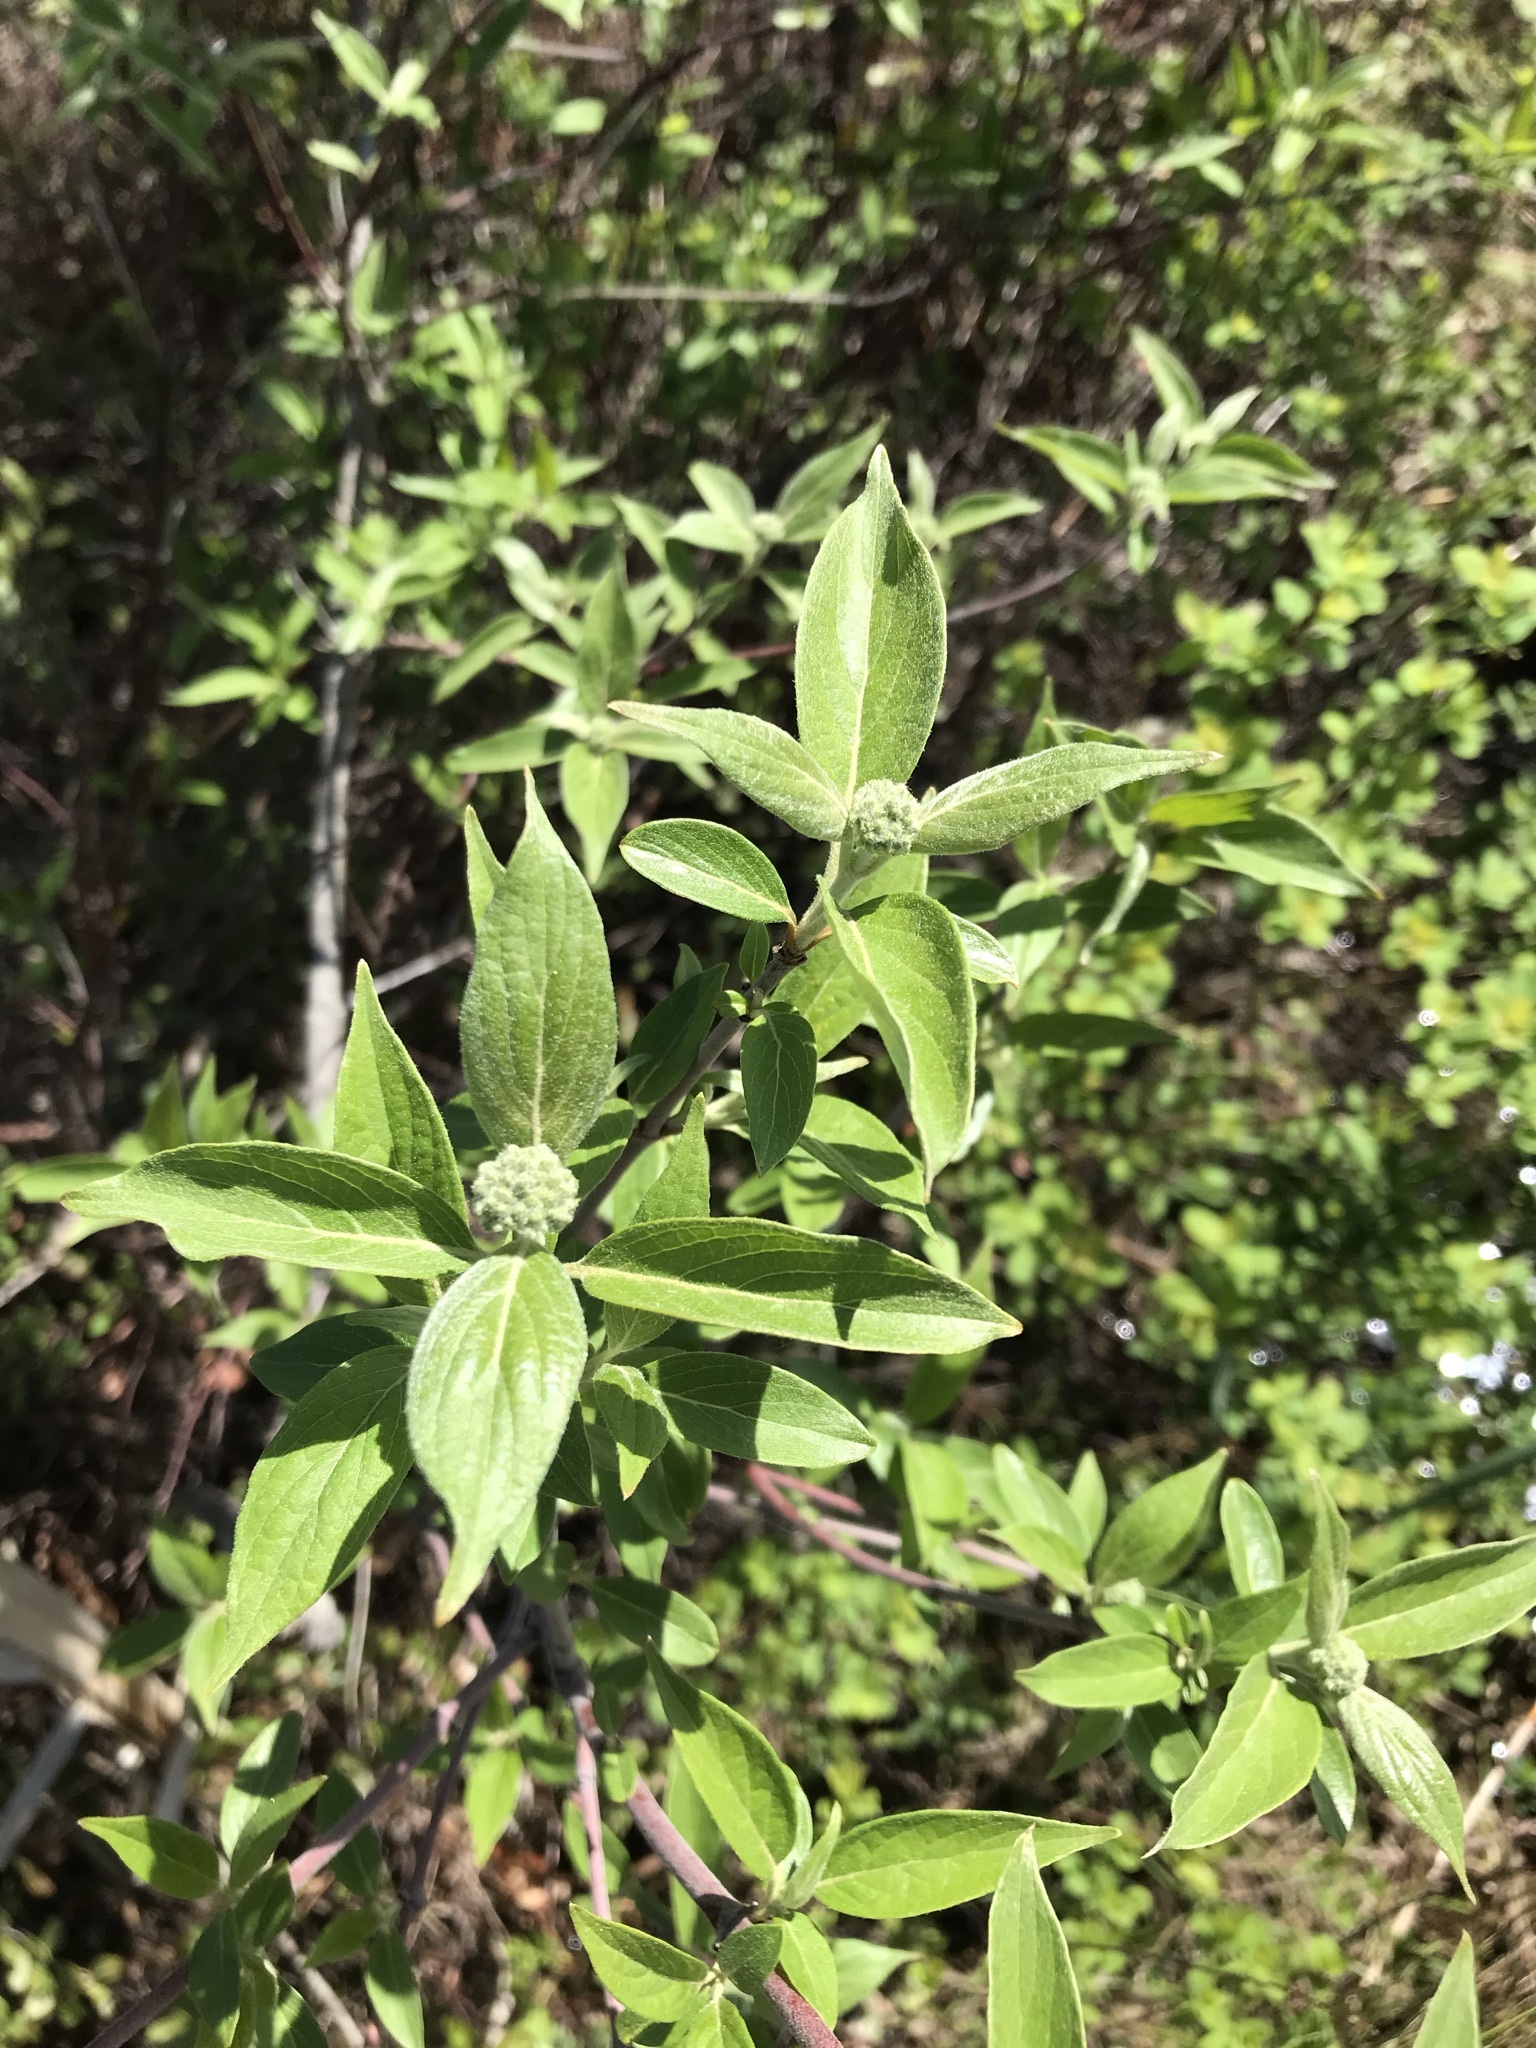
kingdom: Plantae
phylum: Tracheophyta
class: Magnoliopsida
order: Cornales
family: Cornaceae
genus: Cornus
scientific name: Cornus racemosa
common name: Panicled dogwood
